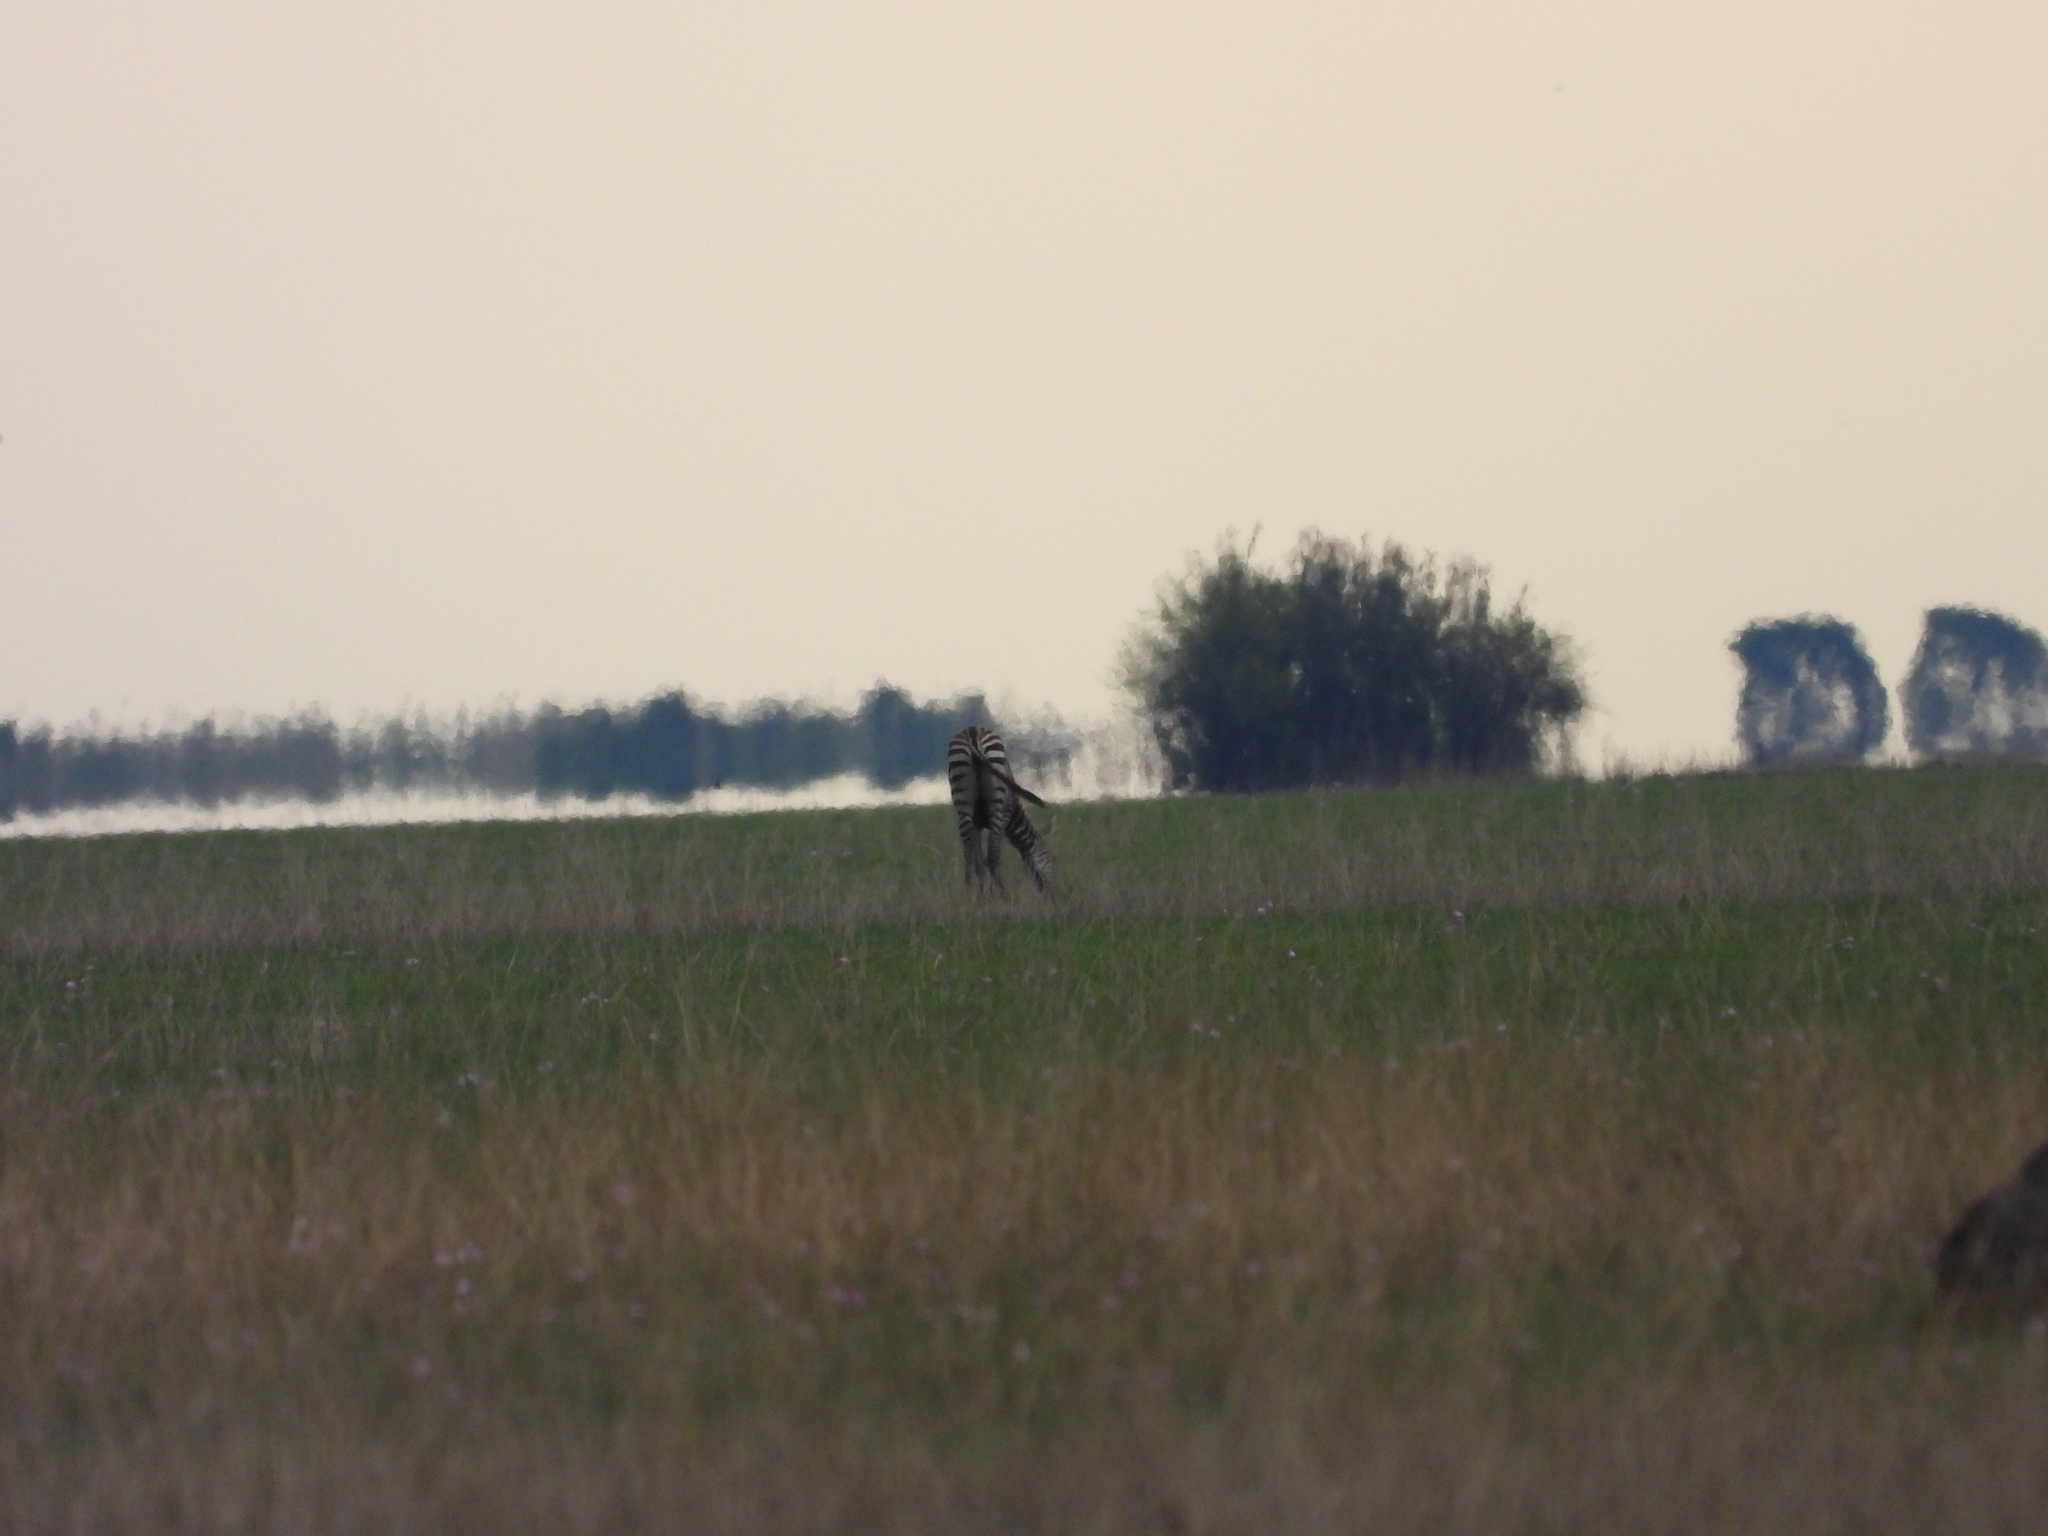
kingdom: Animalia
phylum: Chordata
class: Mammalia
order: Perissodactyla
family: Equidae
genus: Equus
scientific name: Equus quagga
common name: Plains zebra
